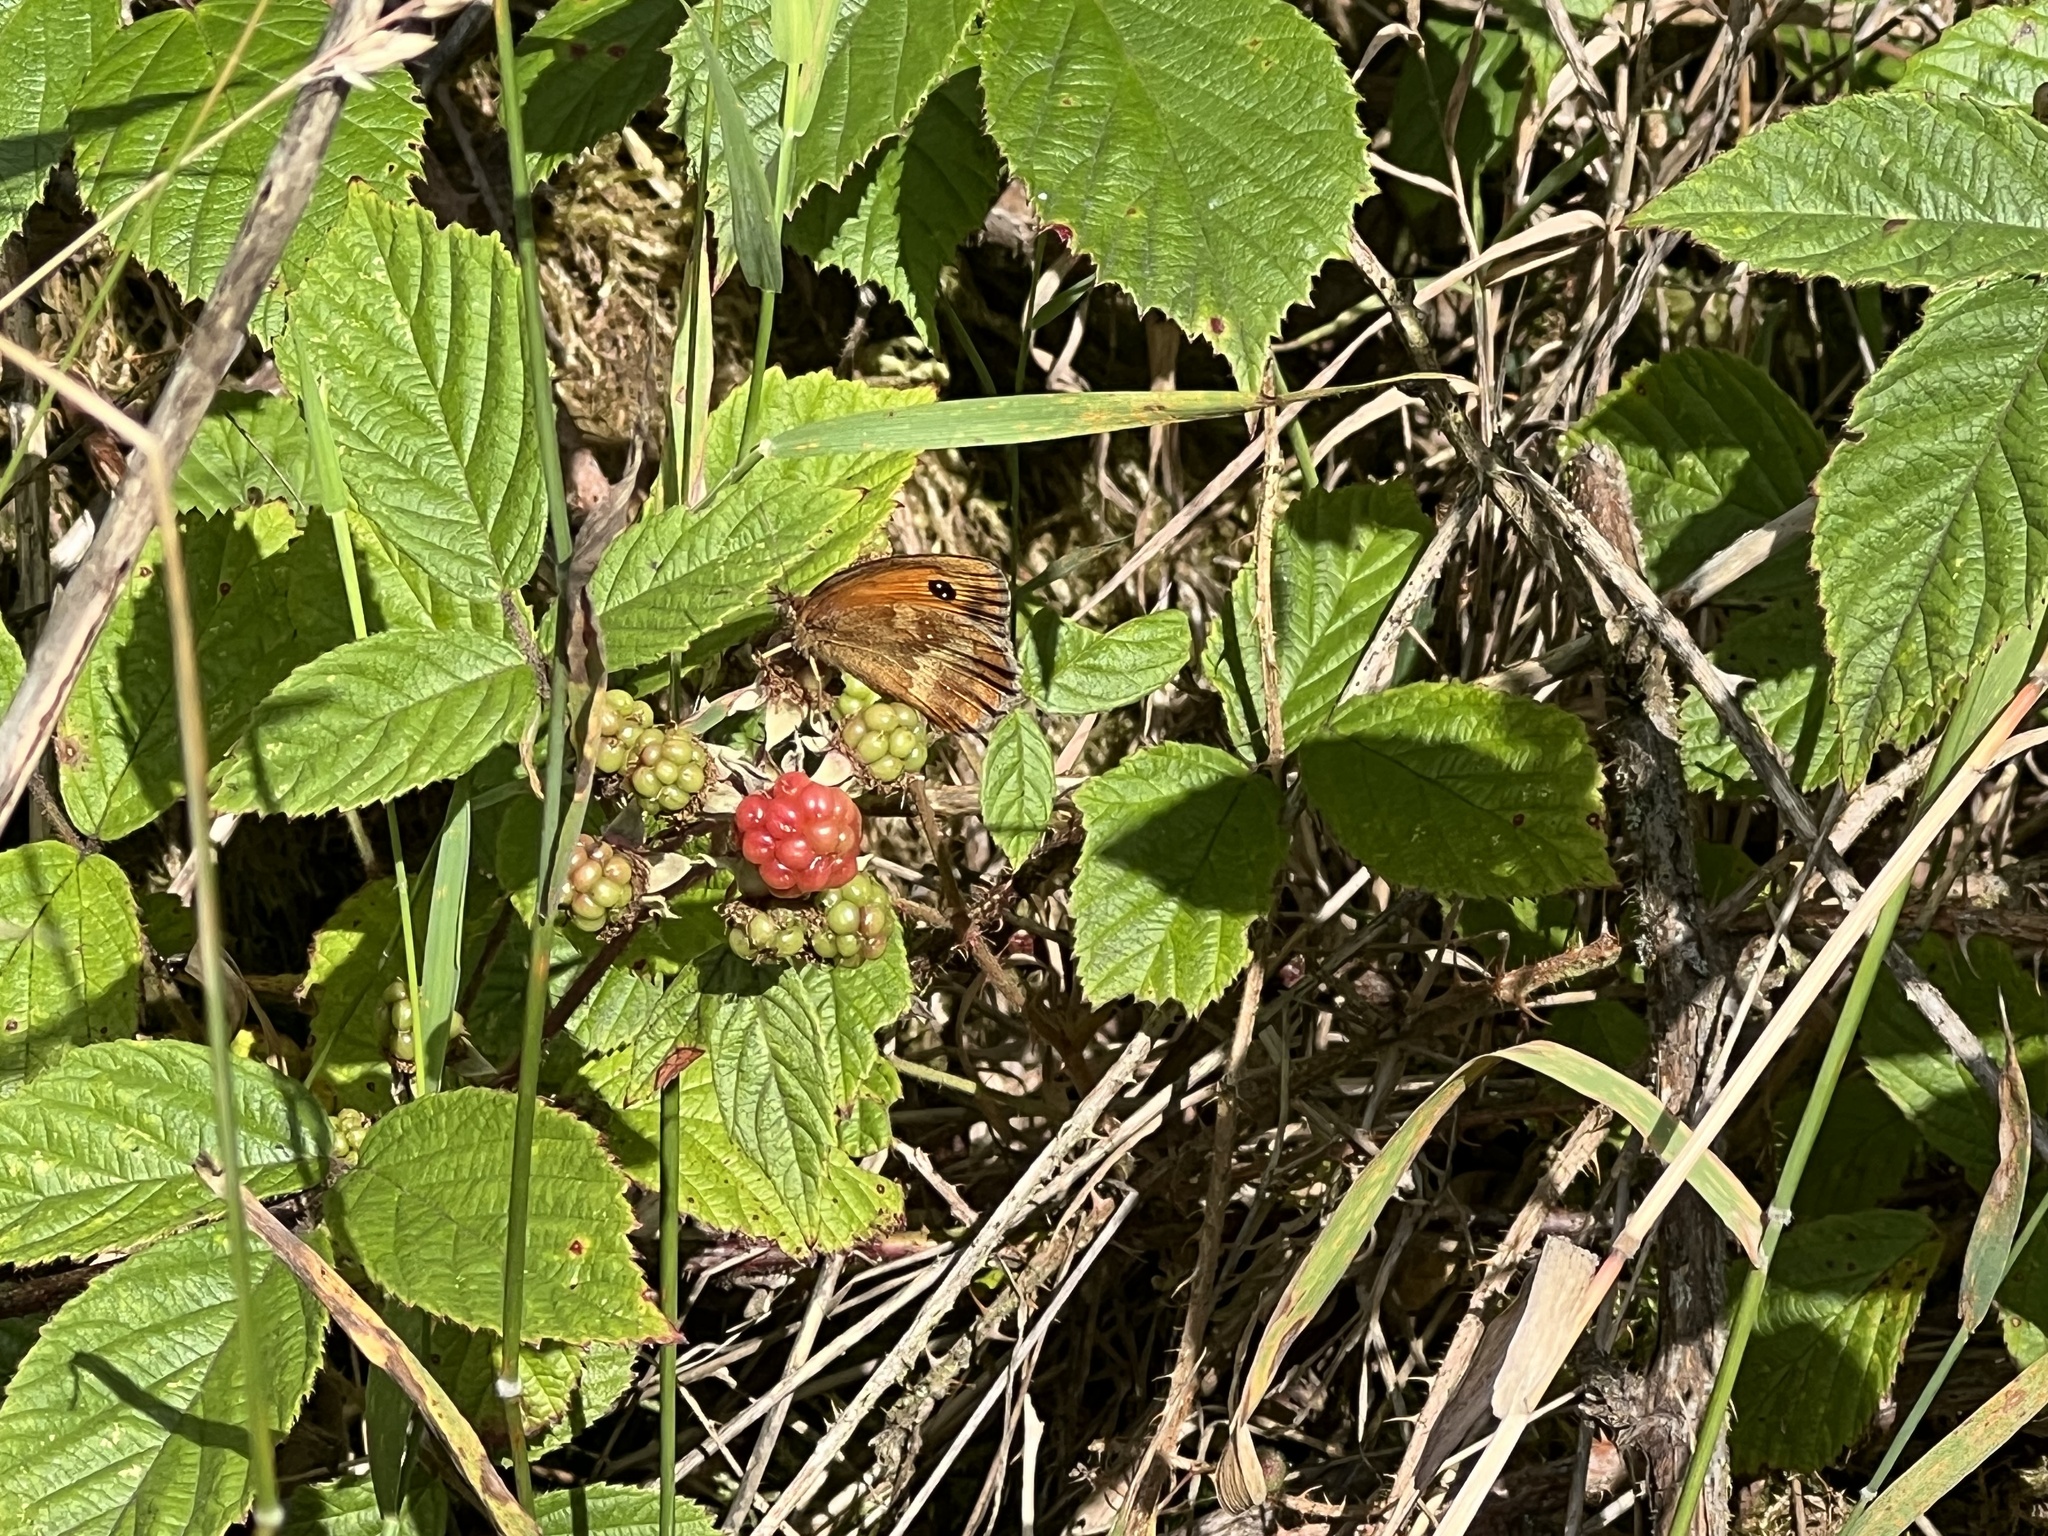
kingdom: Animalia
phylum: Arthropoda
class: Insecta
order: Lepidoptera
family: Nymphalidae
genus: Pyronia
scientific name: Pyronia tithonus
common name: Gatekeeper
